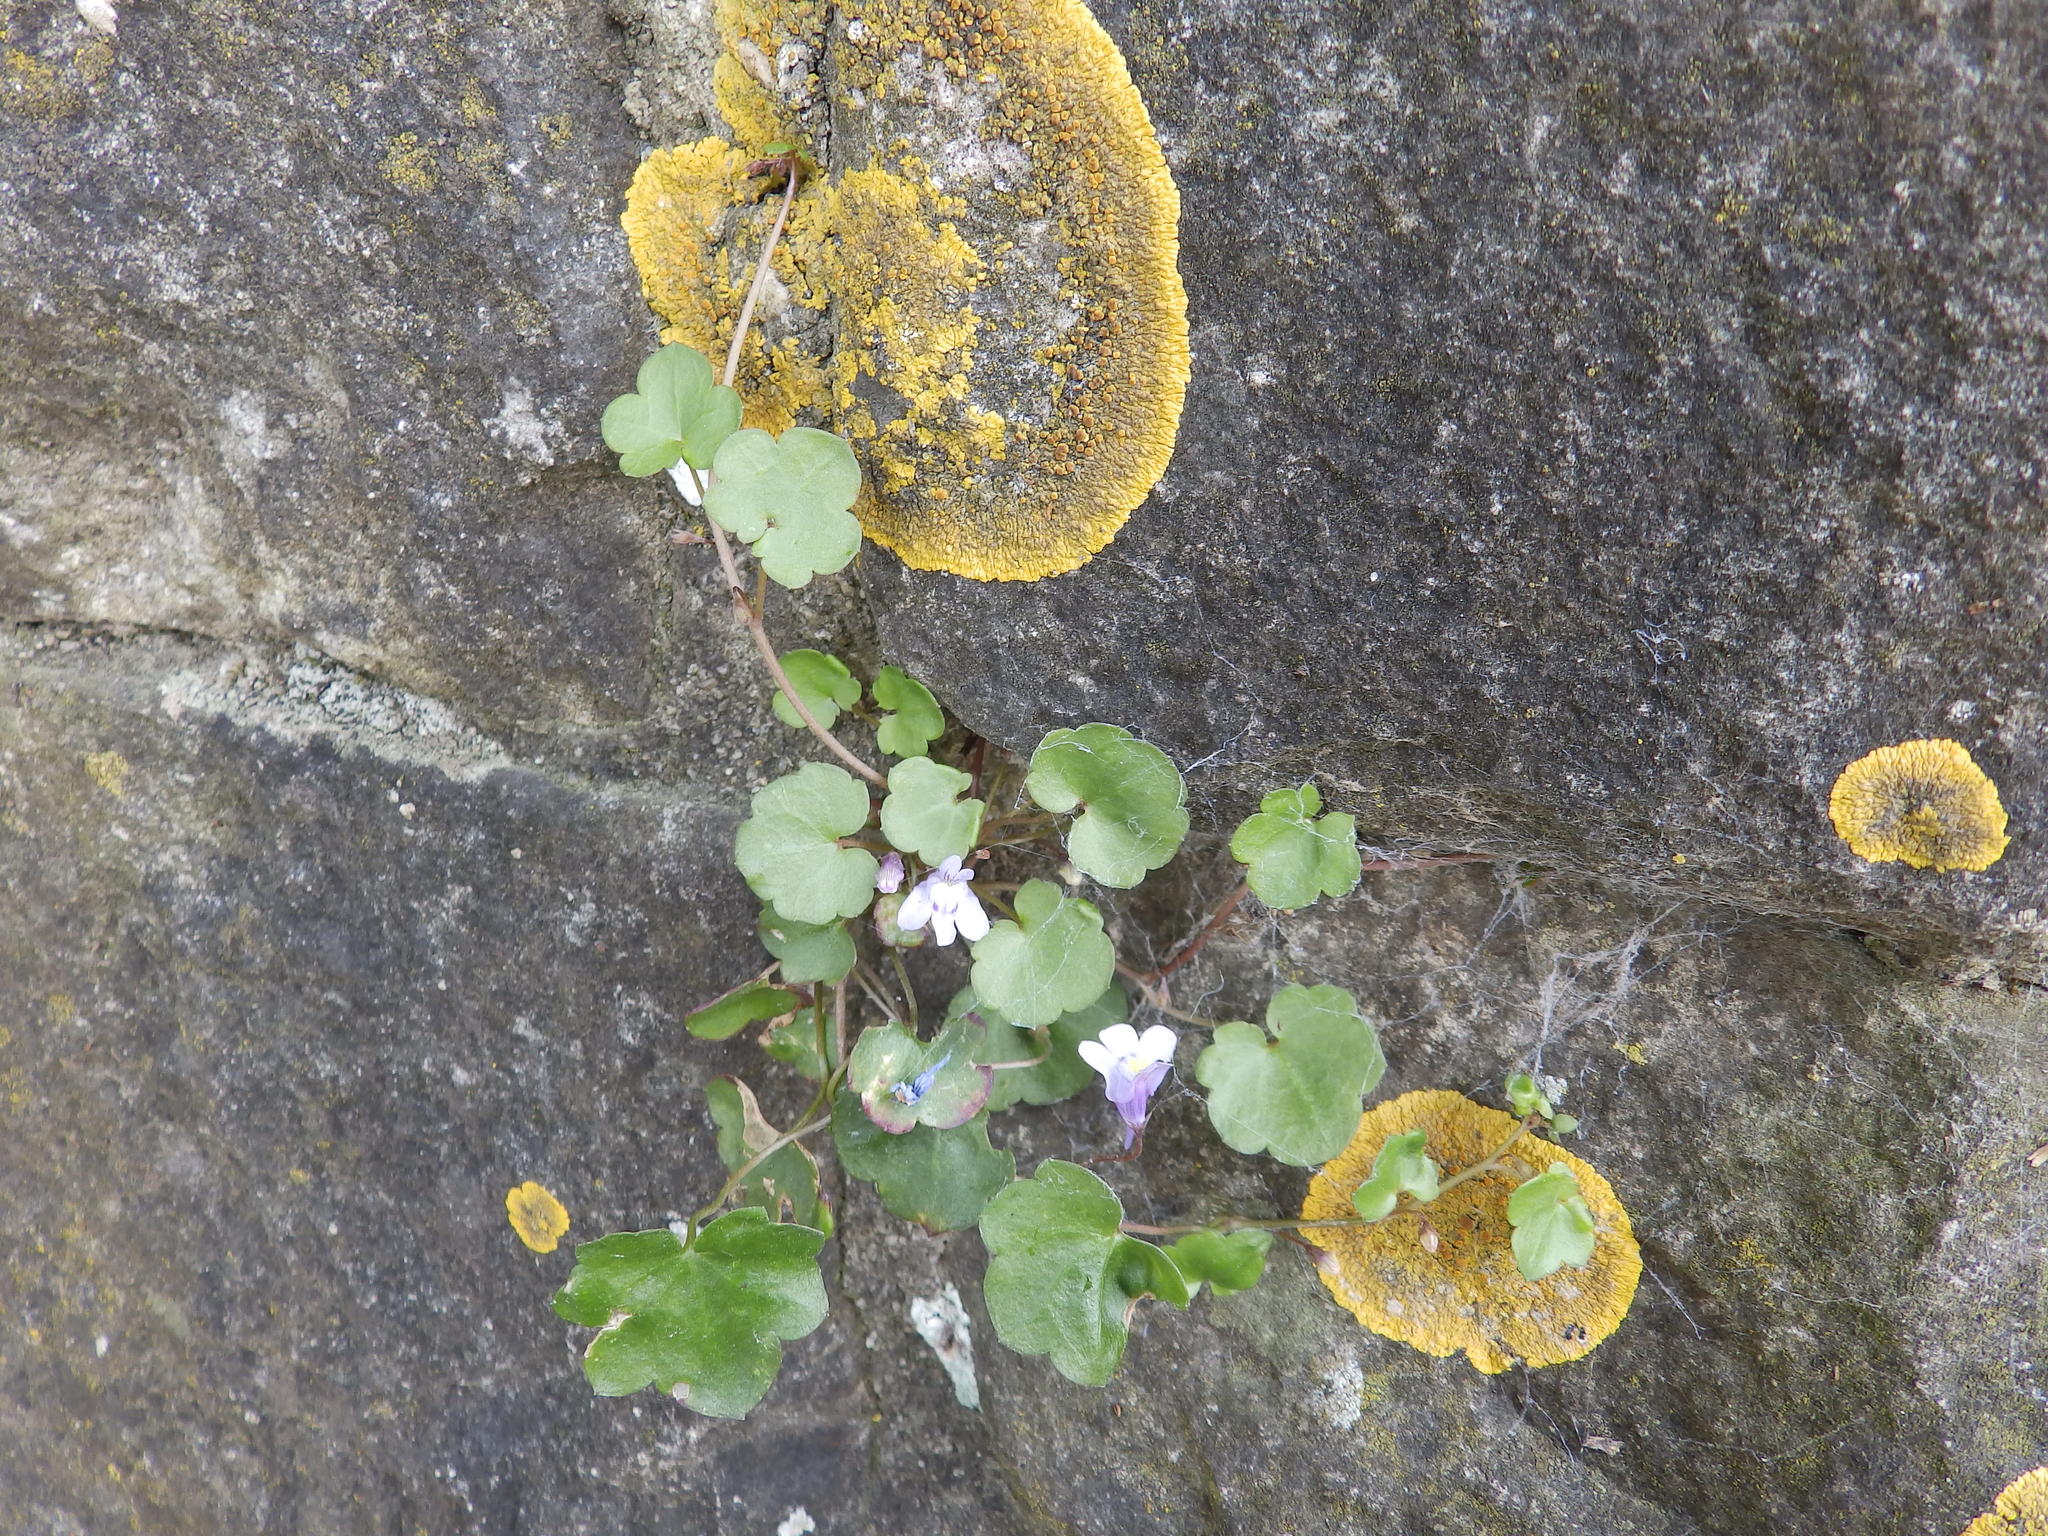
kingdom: Plantae
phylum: Tracheophyta
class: Magnoliopsida
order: Lamiales
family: Plantaginaceae
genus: Cymbalaria
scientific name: Cymbalaria muralis
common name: Ivy-leaved toadflax
